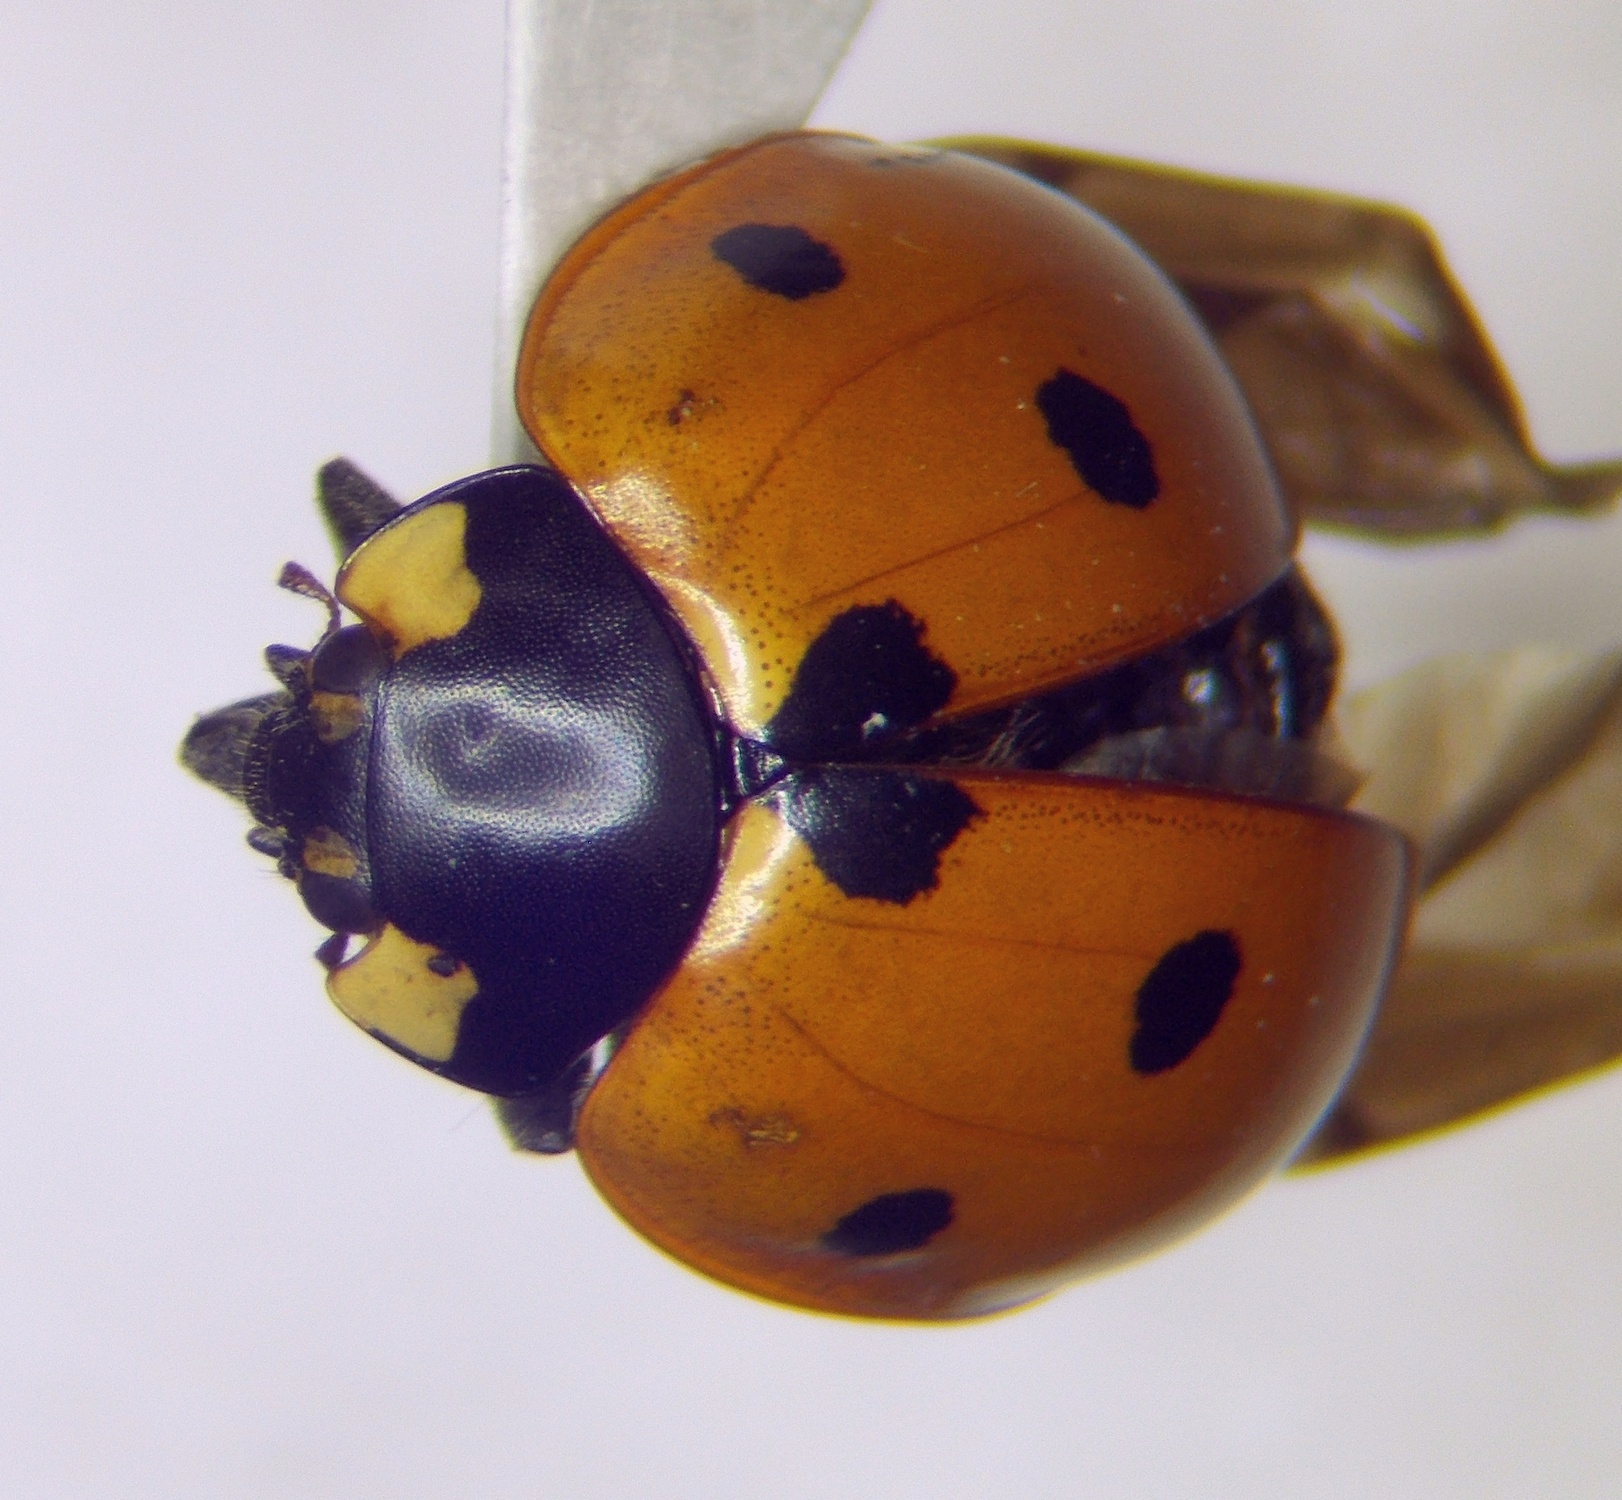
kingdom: Animalia
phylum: Arthropoda
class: Insecta
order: Coleoptera
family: Coccinellidae
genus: Coccinella
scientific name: Coccinella septempunctata
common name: Sevenspotted lady beetle
